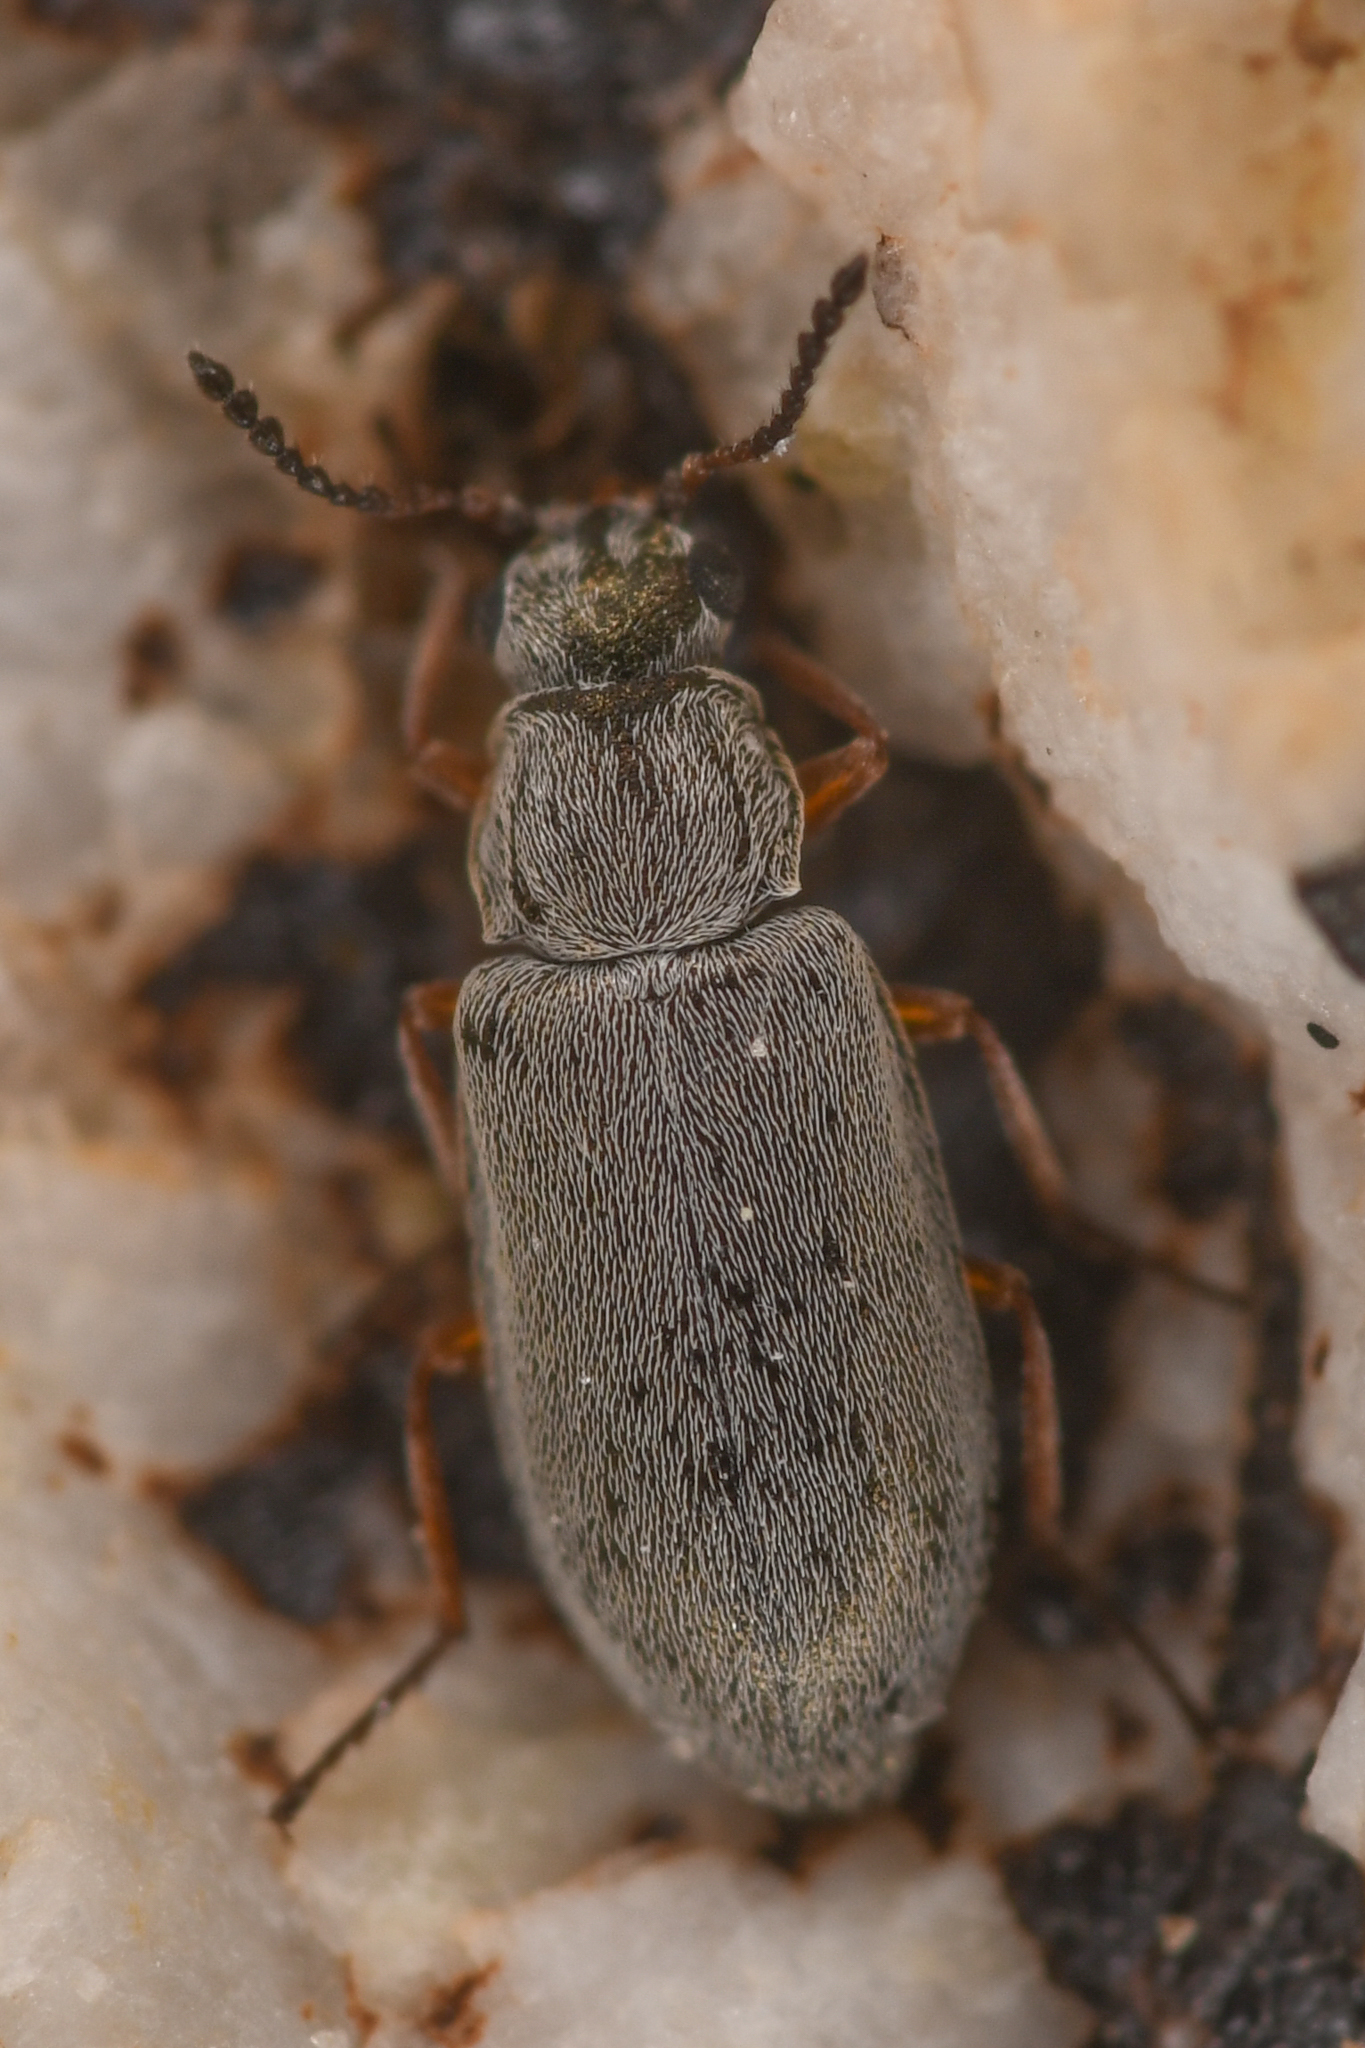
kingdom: Animalia
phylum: Arthropoda
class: Insecta
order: Coleoptera
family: Melyridae
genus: Vecturoides
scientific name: Vecturoides
